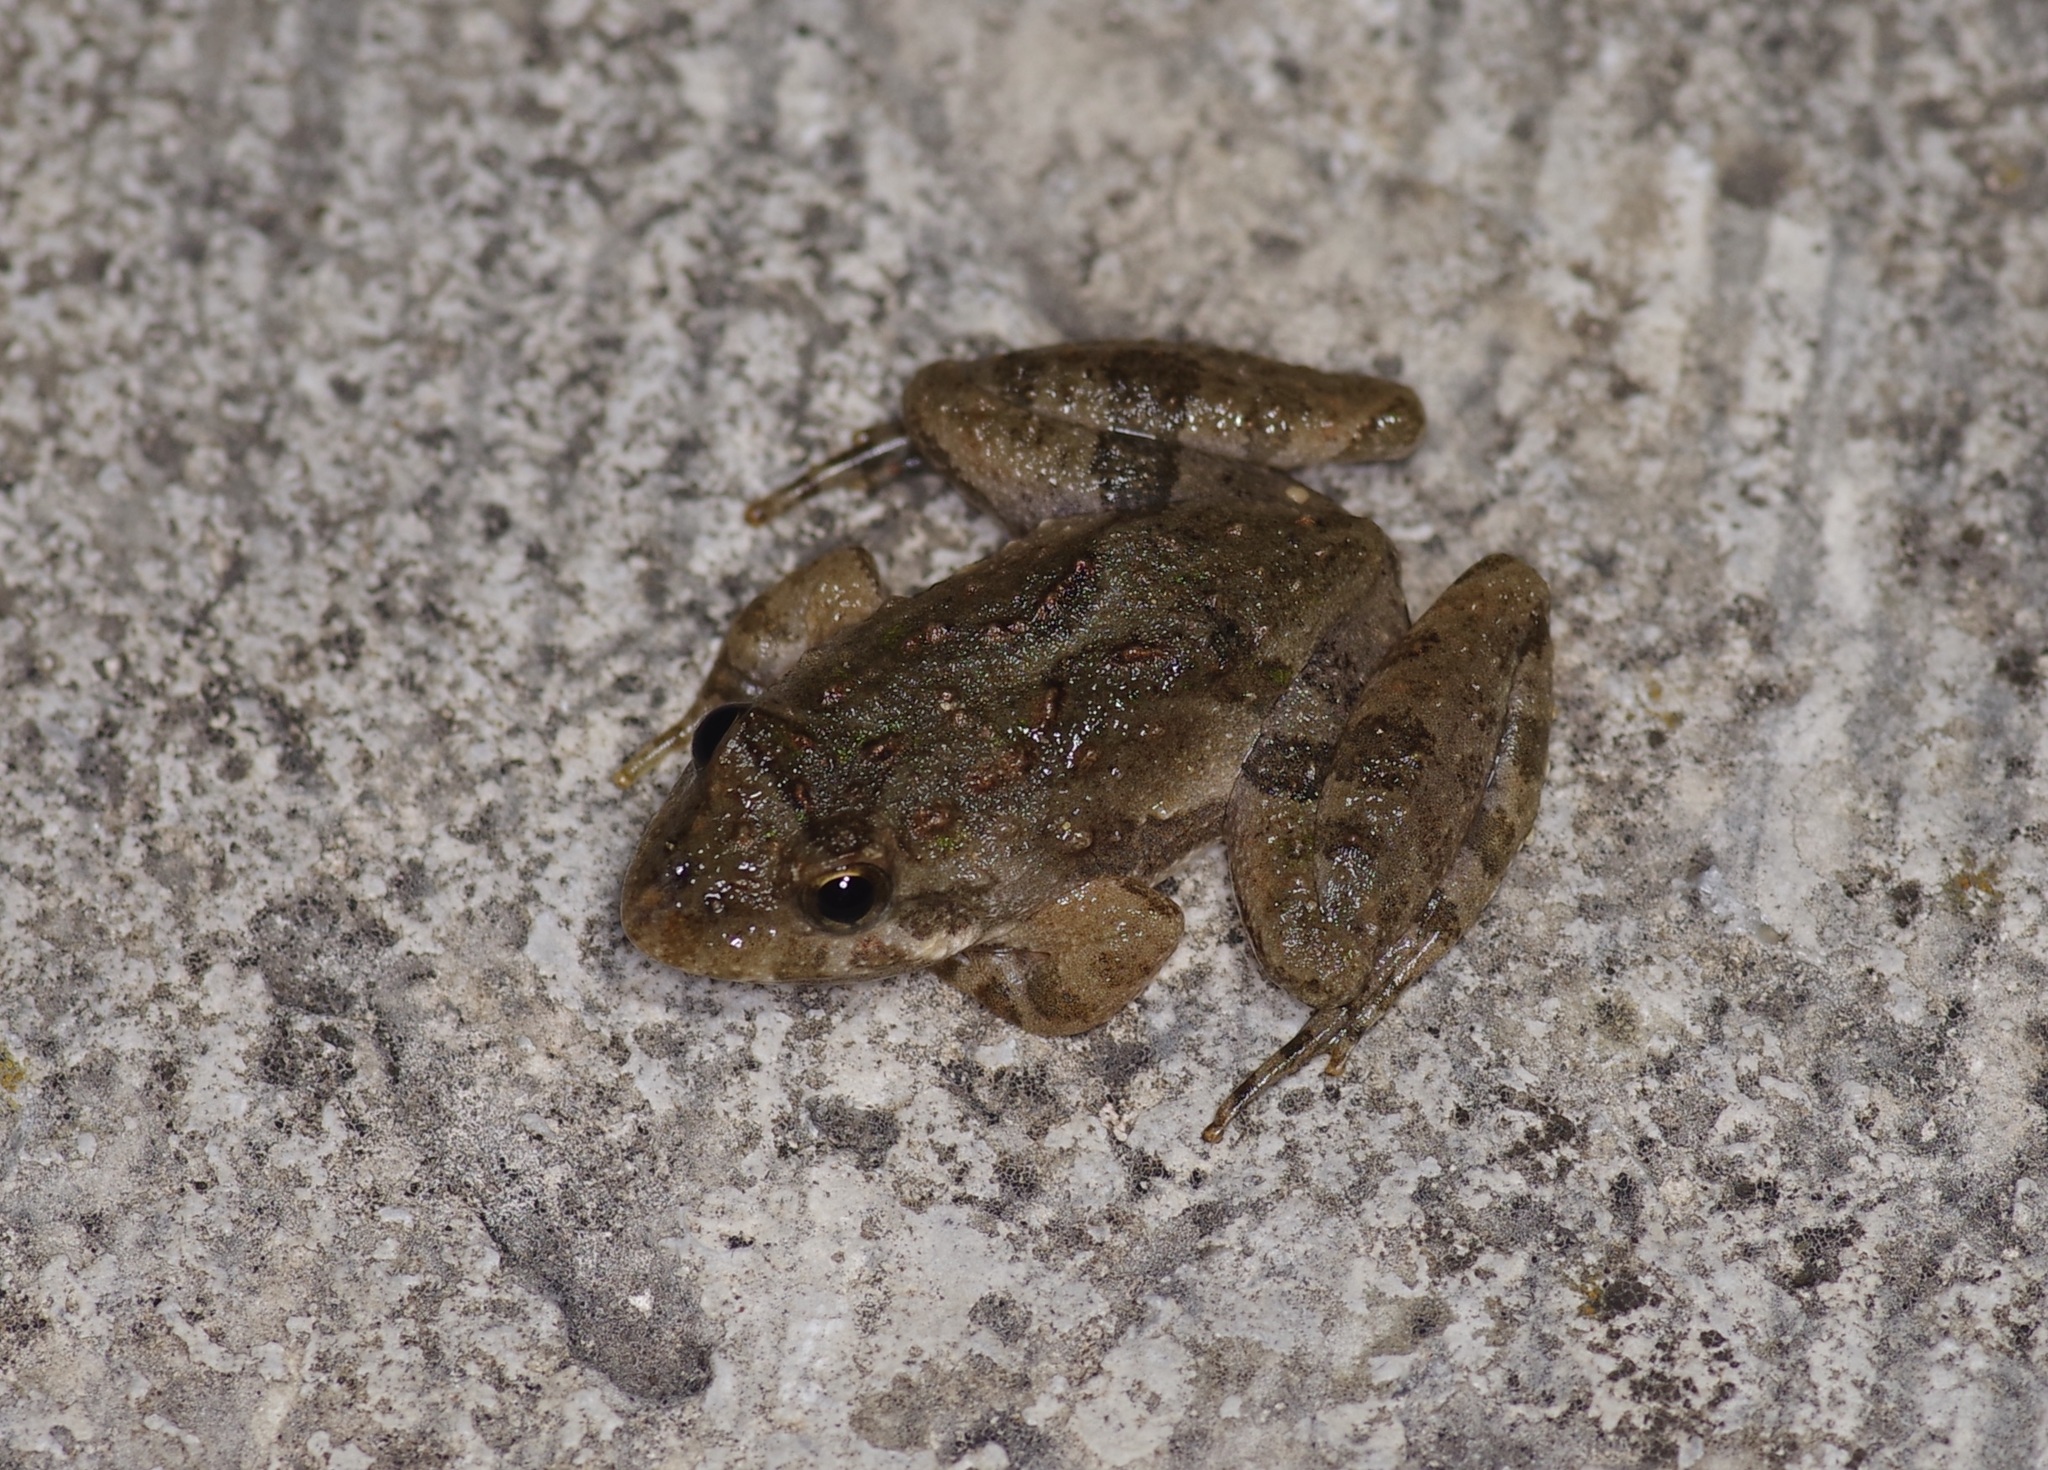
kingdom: Animalia
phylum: Chordata
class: Amphibia
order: Anura
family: Hylidae
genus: Acris
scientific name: Acris blanchardi
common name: Blanchard's cricket frog
